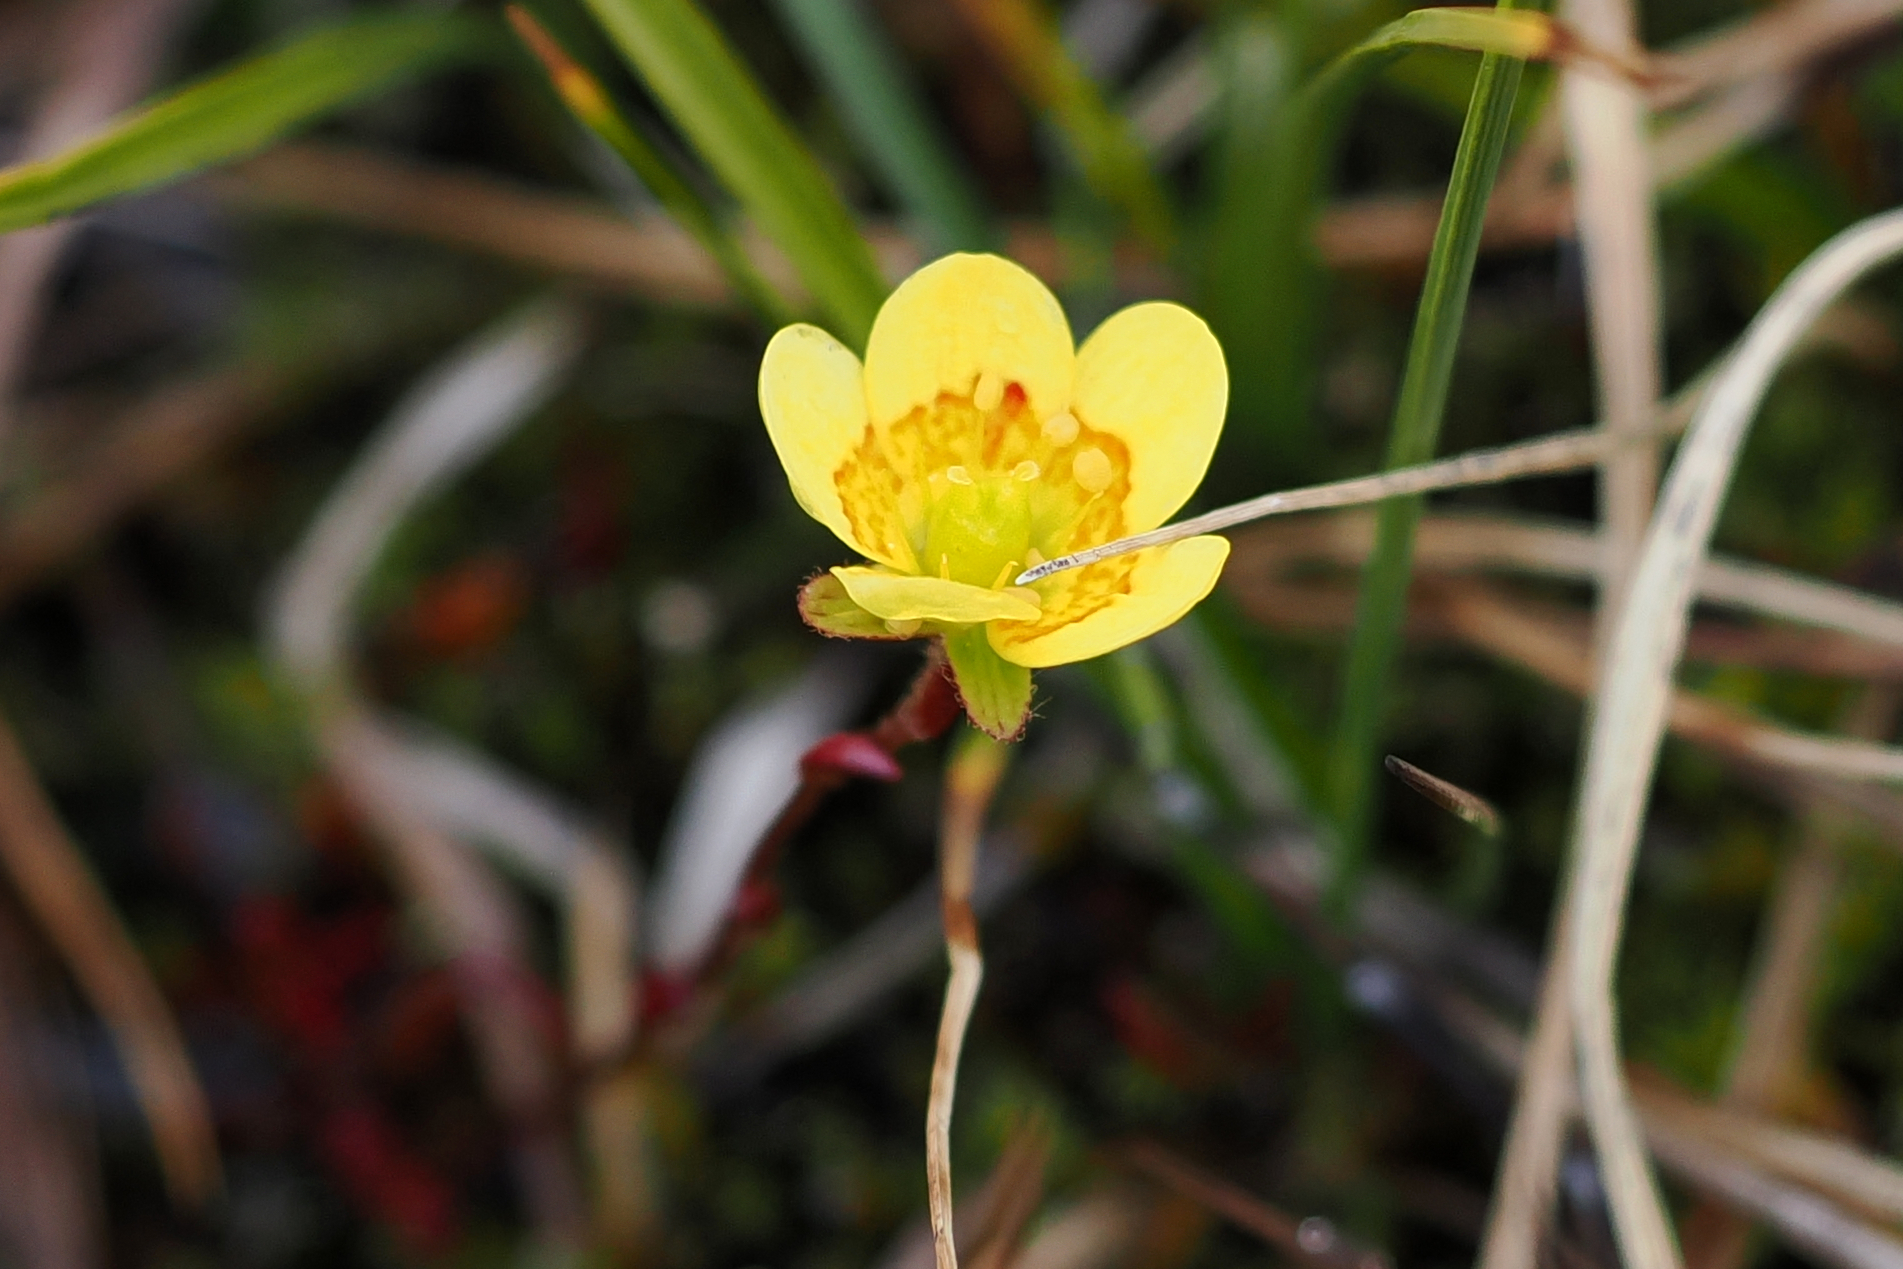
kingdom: Plantae
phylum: Tracheophyta
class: Magnoliopsida
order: Saxifragales
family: Saxifragaceae
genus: Saxifraga
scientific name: Saxifraga hirculus
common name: Yellow marsh saxifrage
